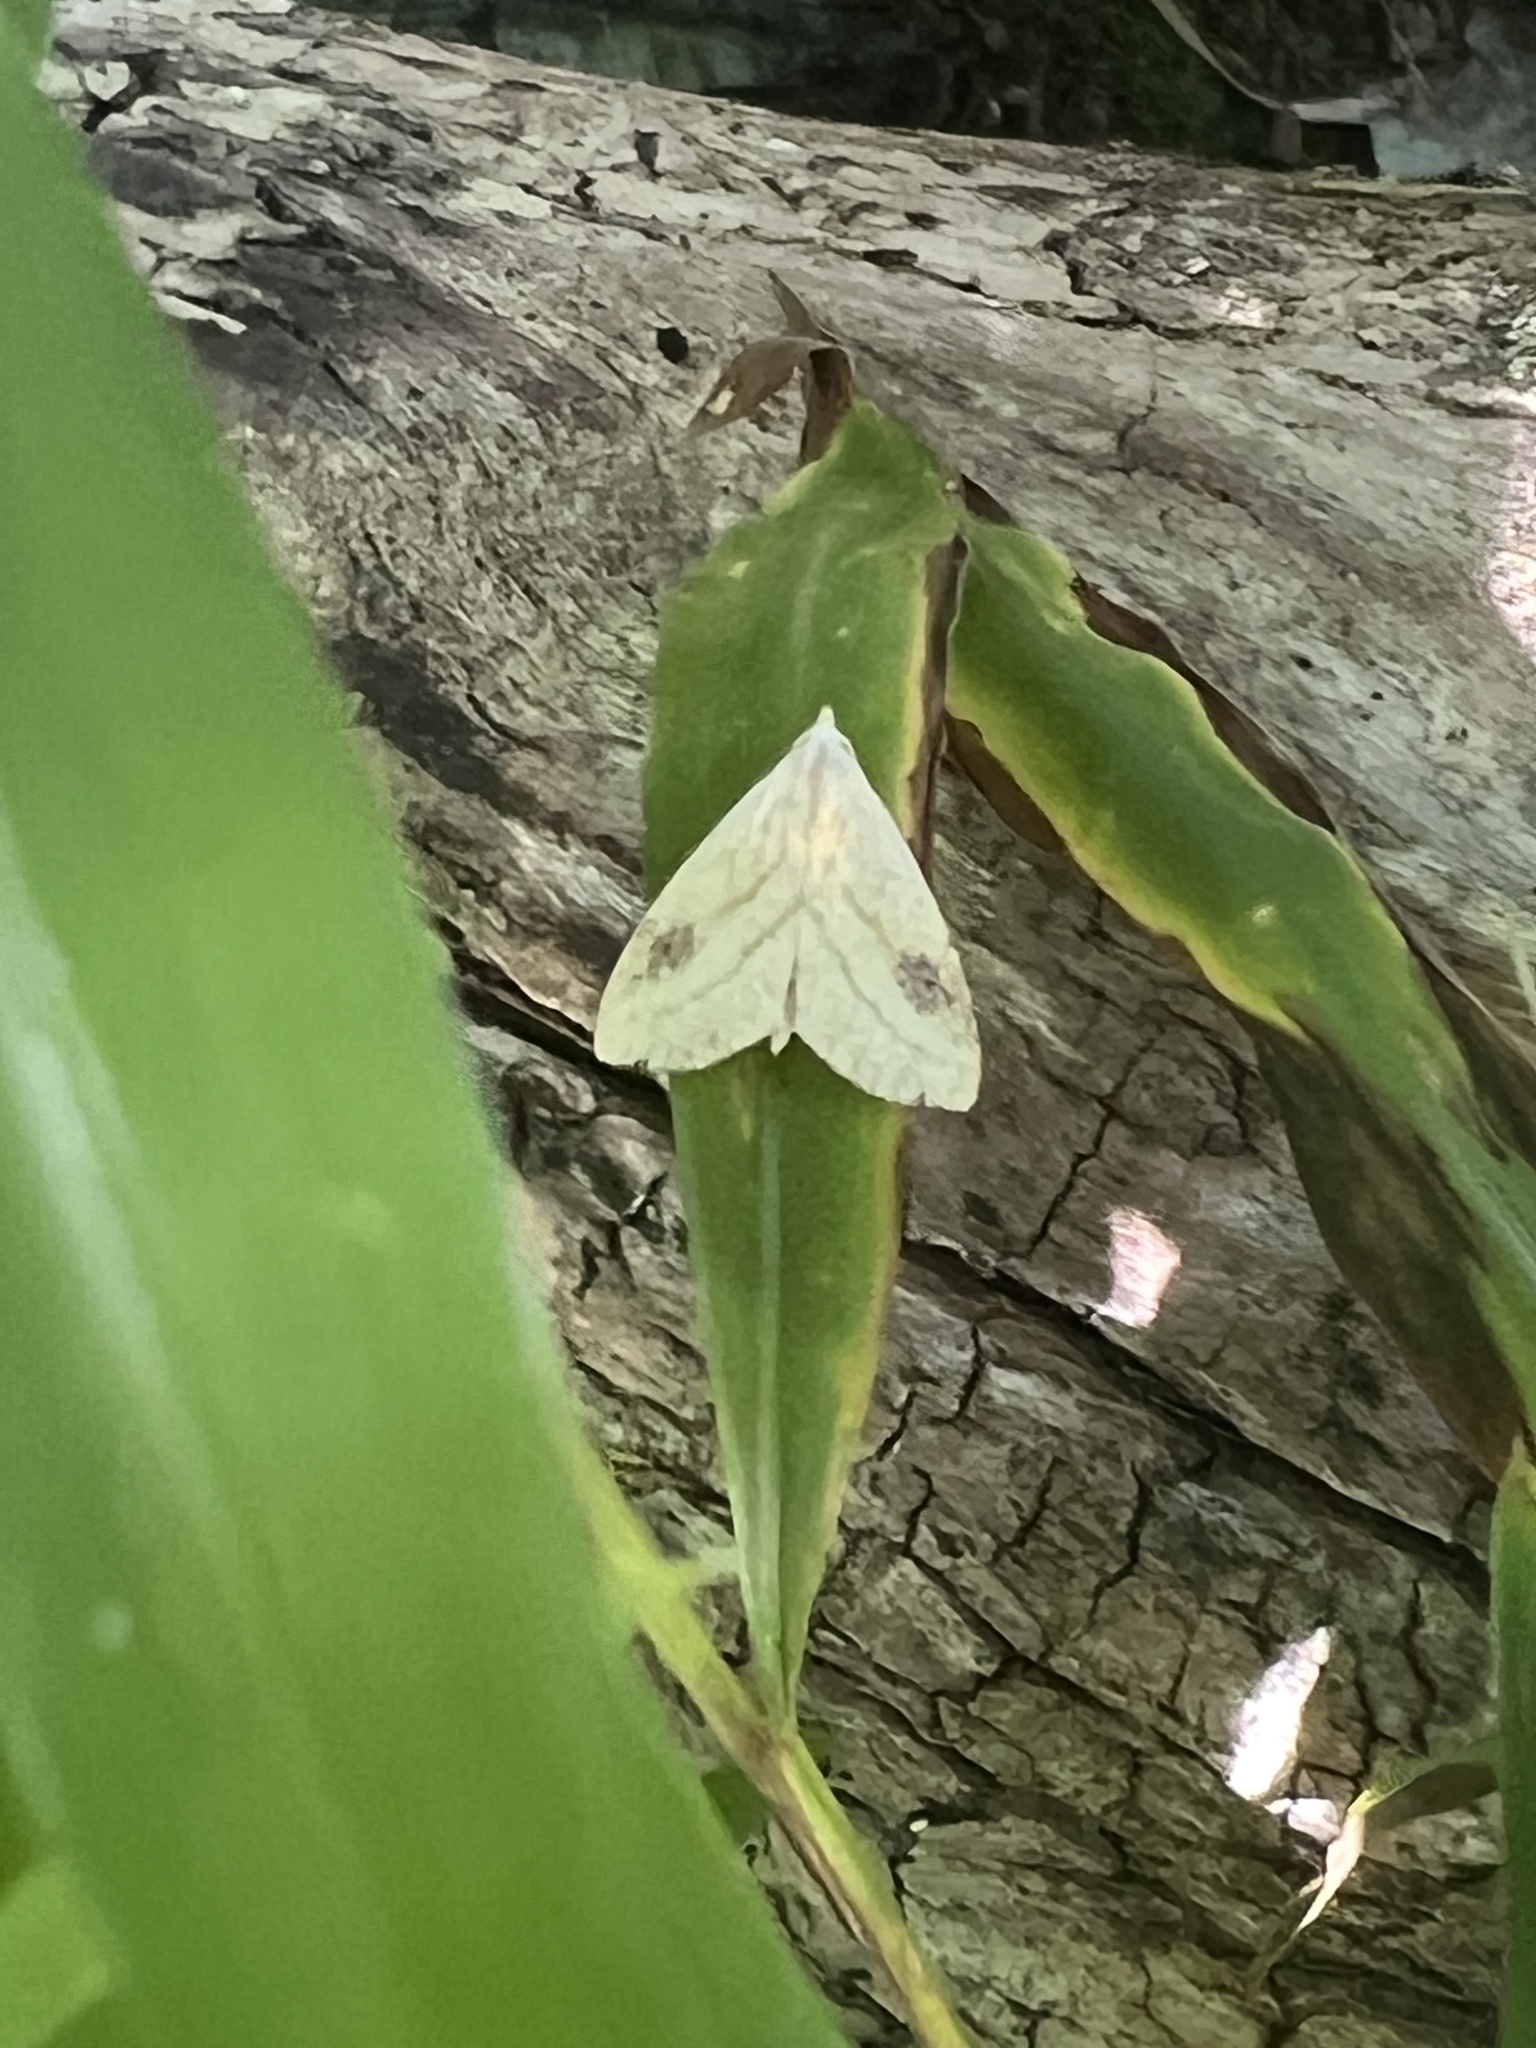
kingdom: Animalia
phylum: Arthropoda
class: Insecta
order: Lepidoptera
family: Erebidae
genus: Rivula
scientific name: Rivula propinqualis
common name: Spotted grass moth
